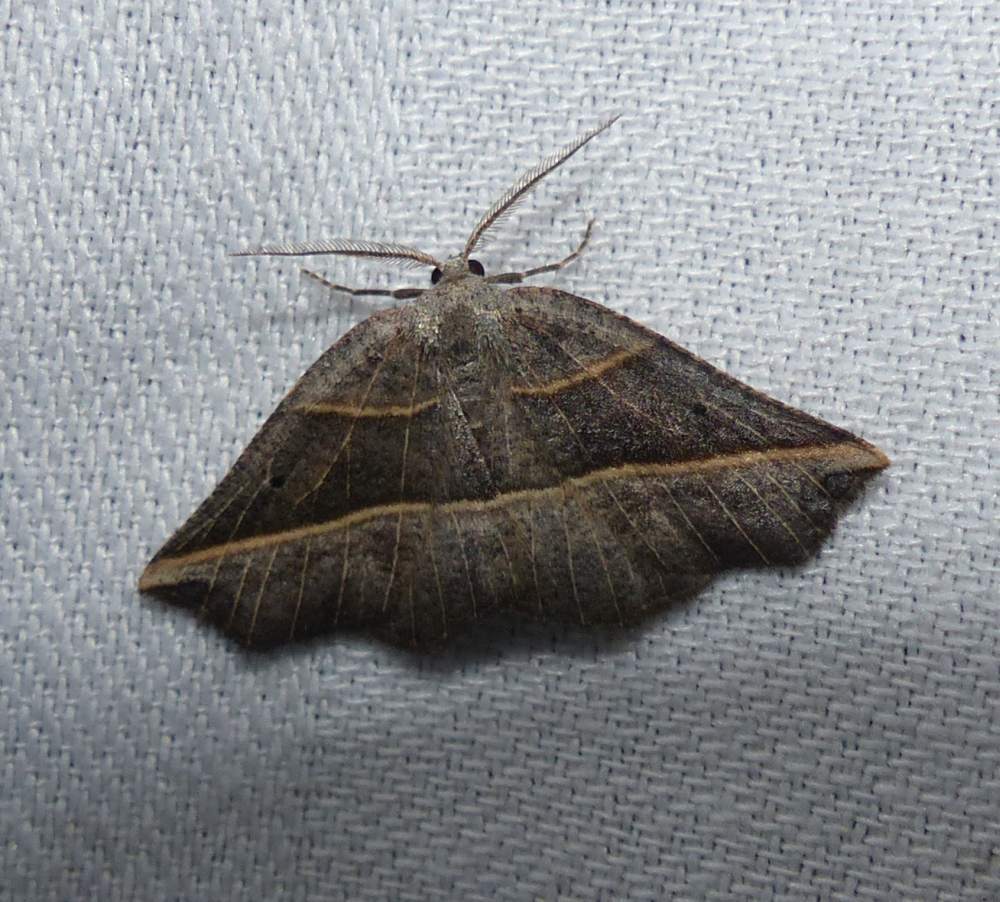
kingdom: Animalia
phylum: Arthropoda
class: Insecta
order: Lepidoptera
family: Geometridae
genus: Metanema
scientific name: Metanema determinata
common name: Dark metanema
